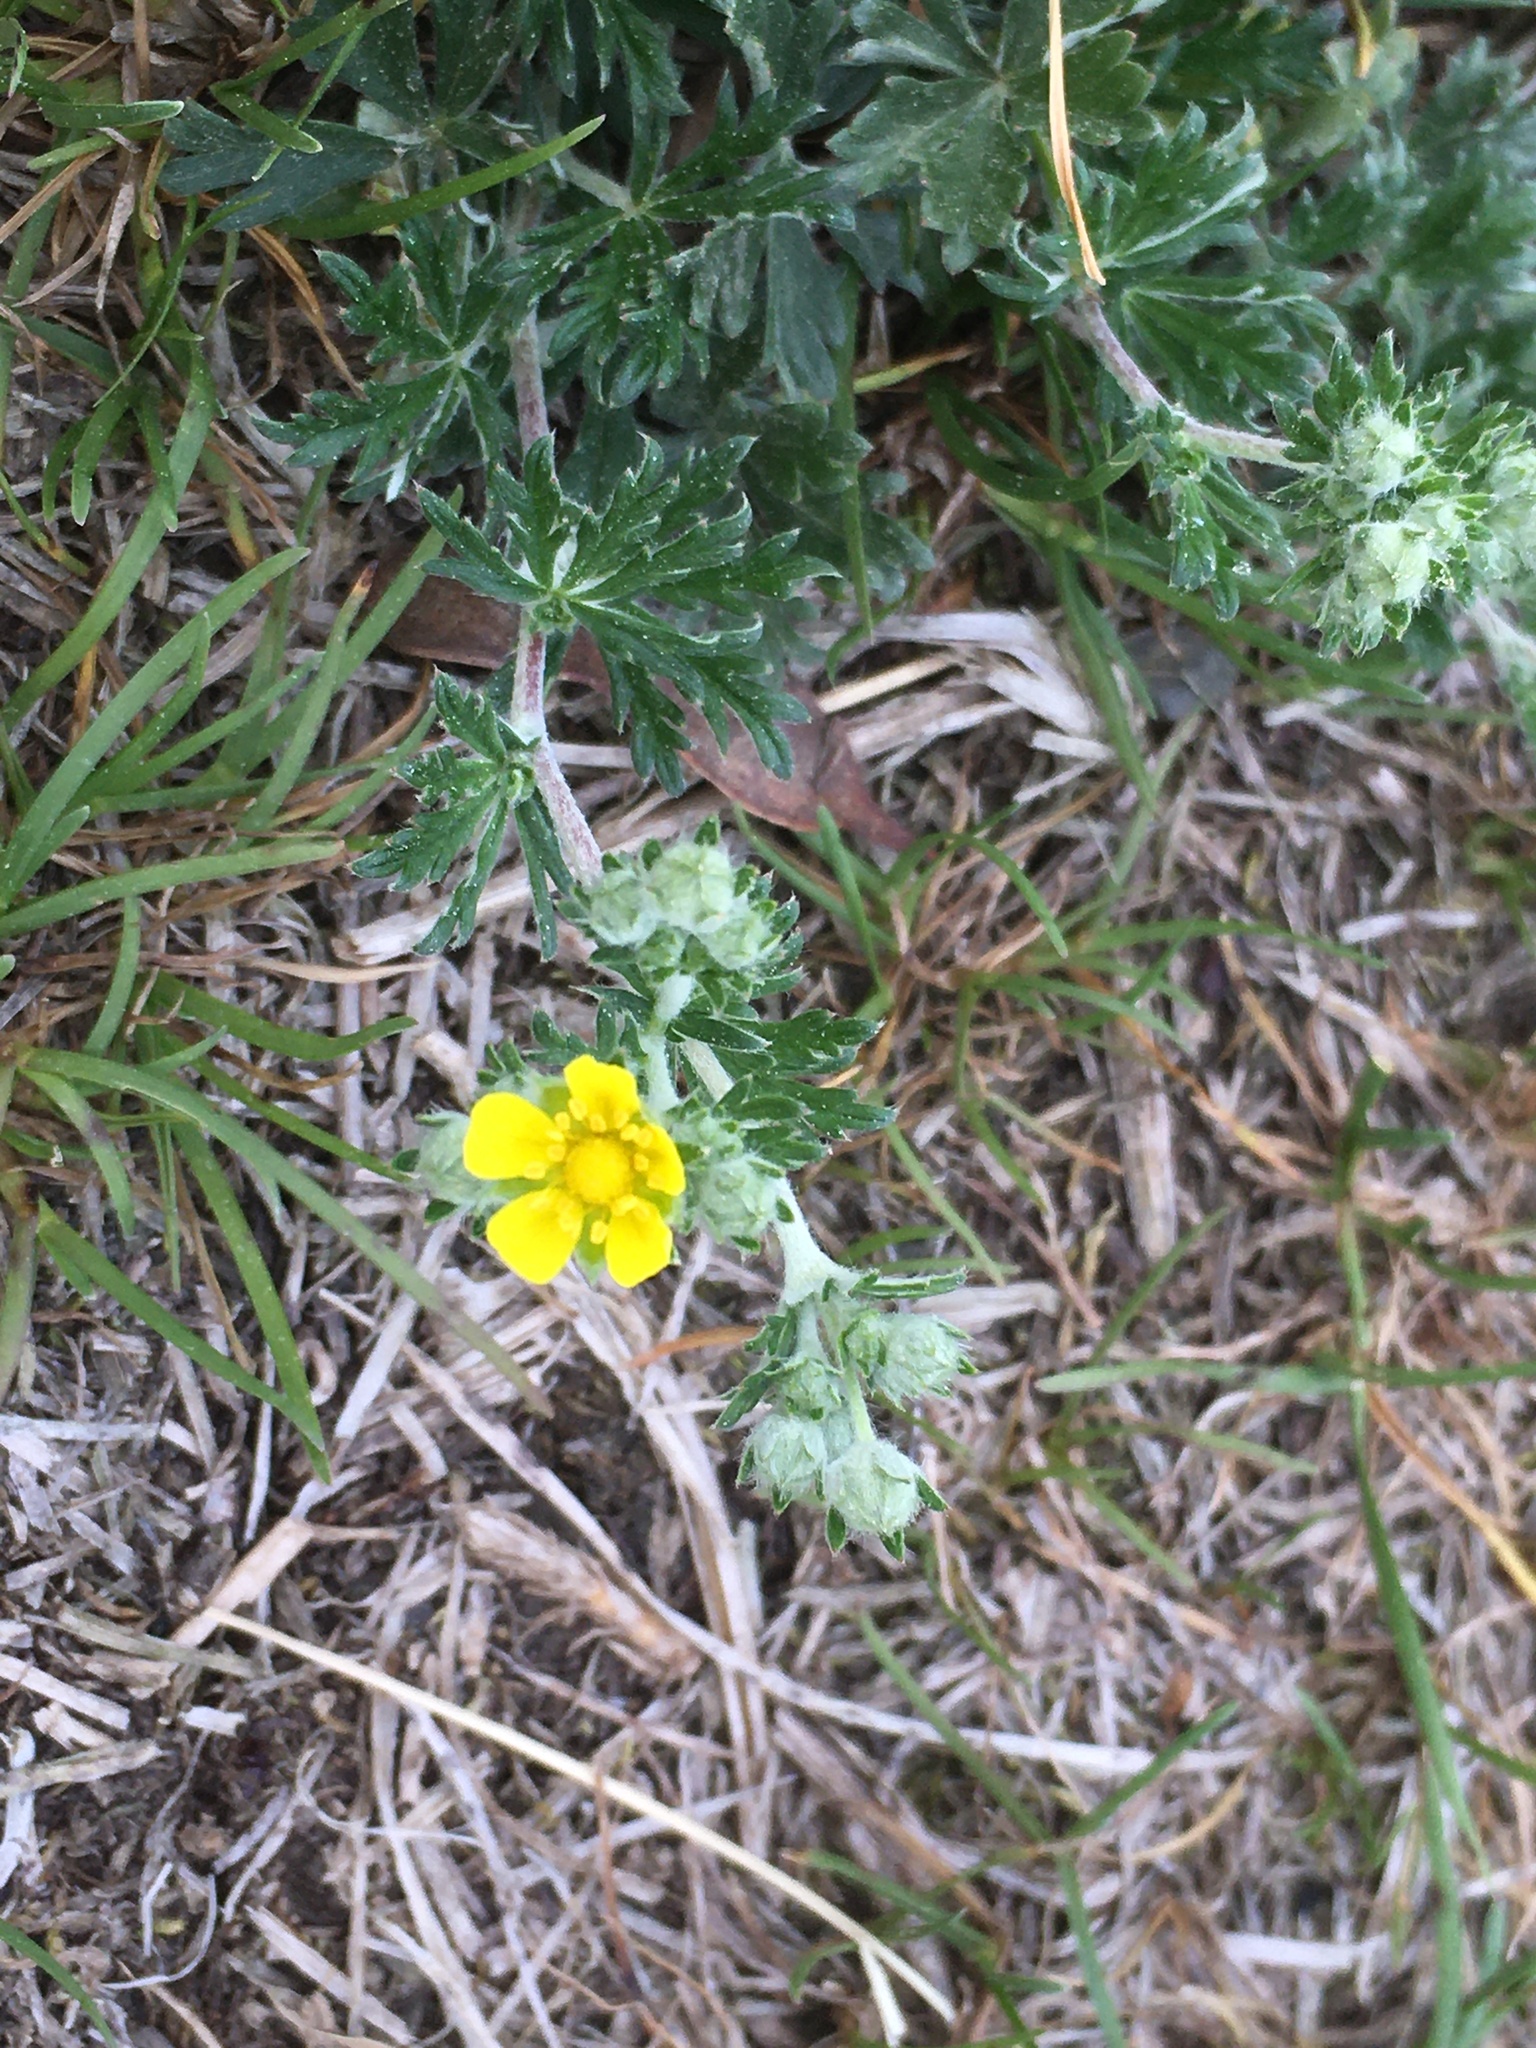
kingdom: Plantae
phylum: Tracheophyta
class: Magnoliopsida
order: Rosales
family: Rosaceae
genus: Potentilla
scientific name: Potentilla argentea
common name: Hoary cinquefoil
